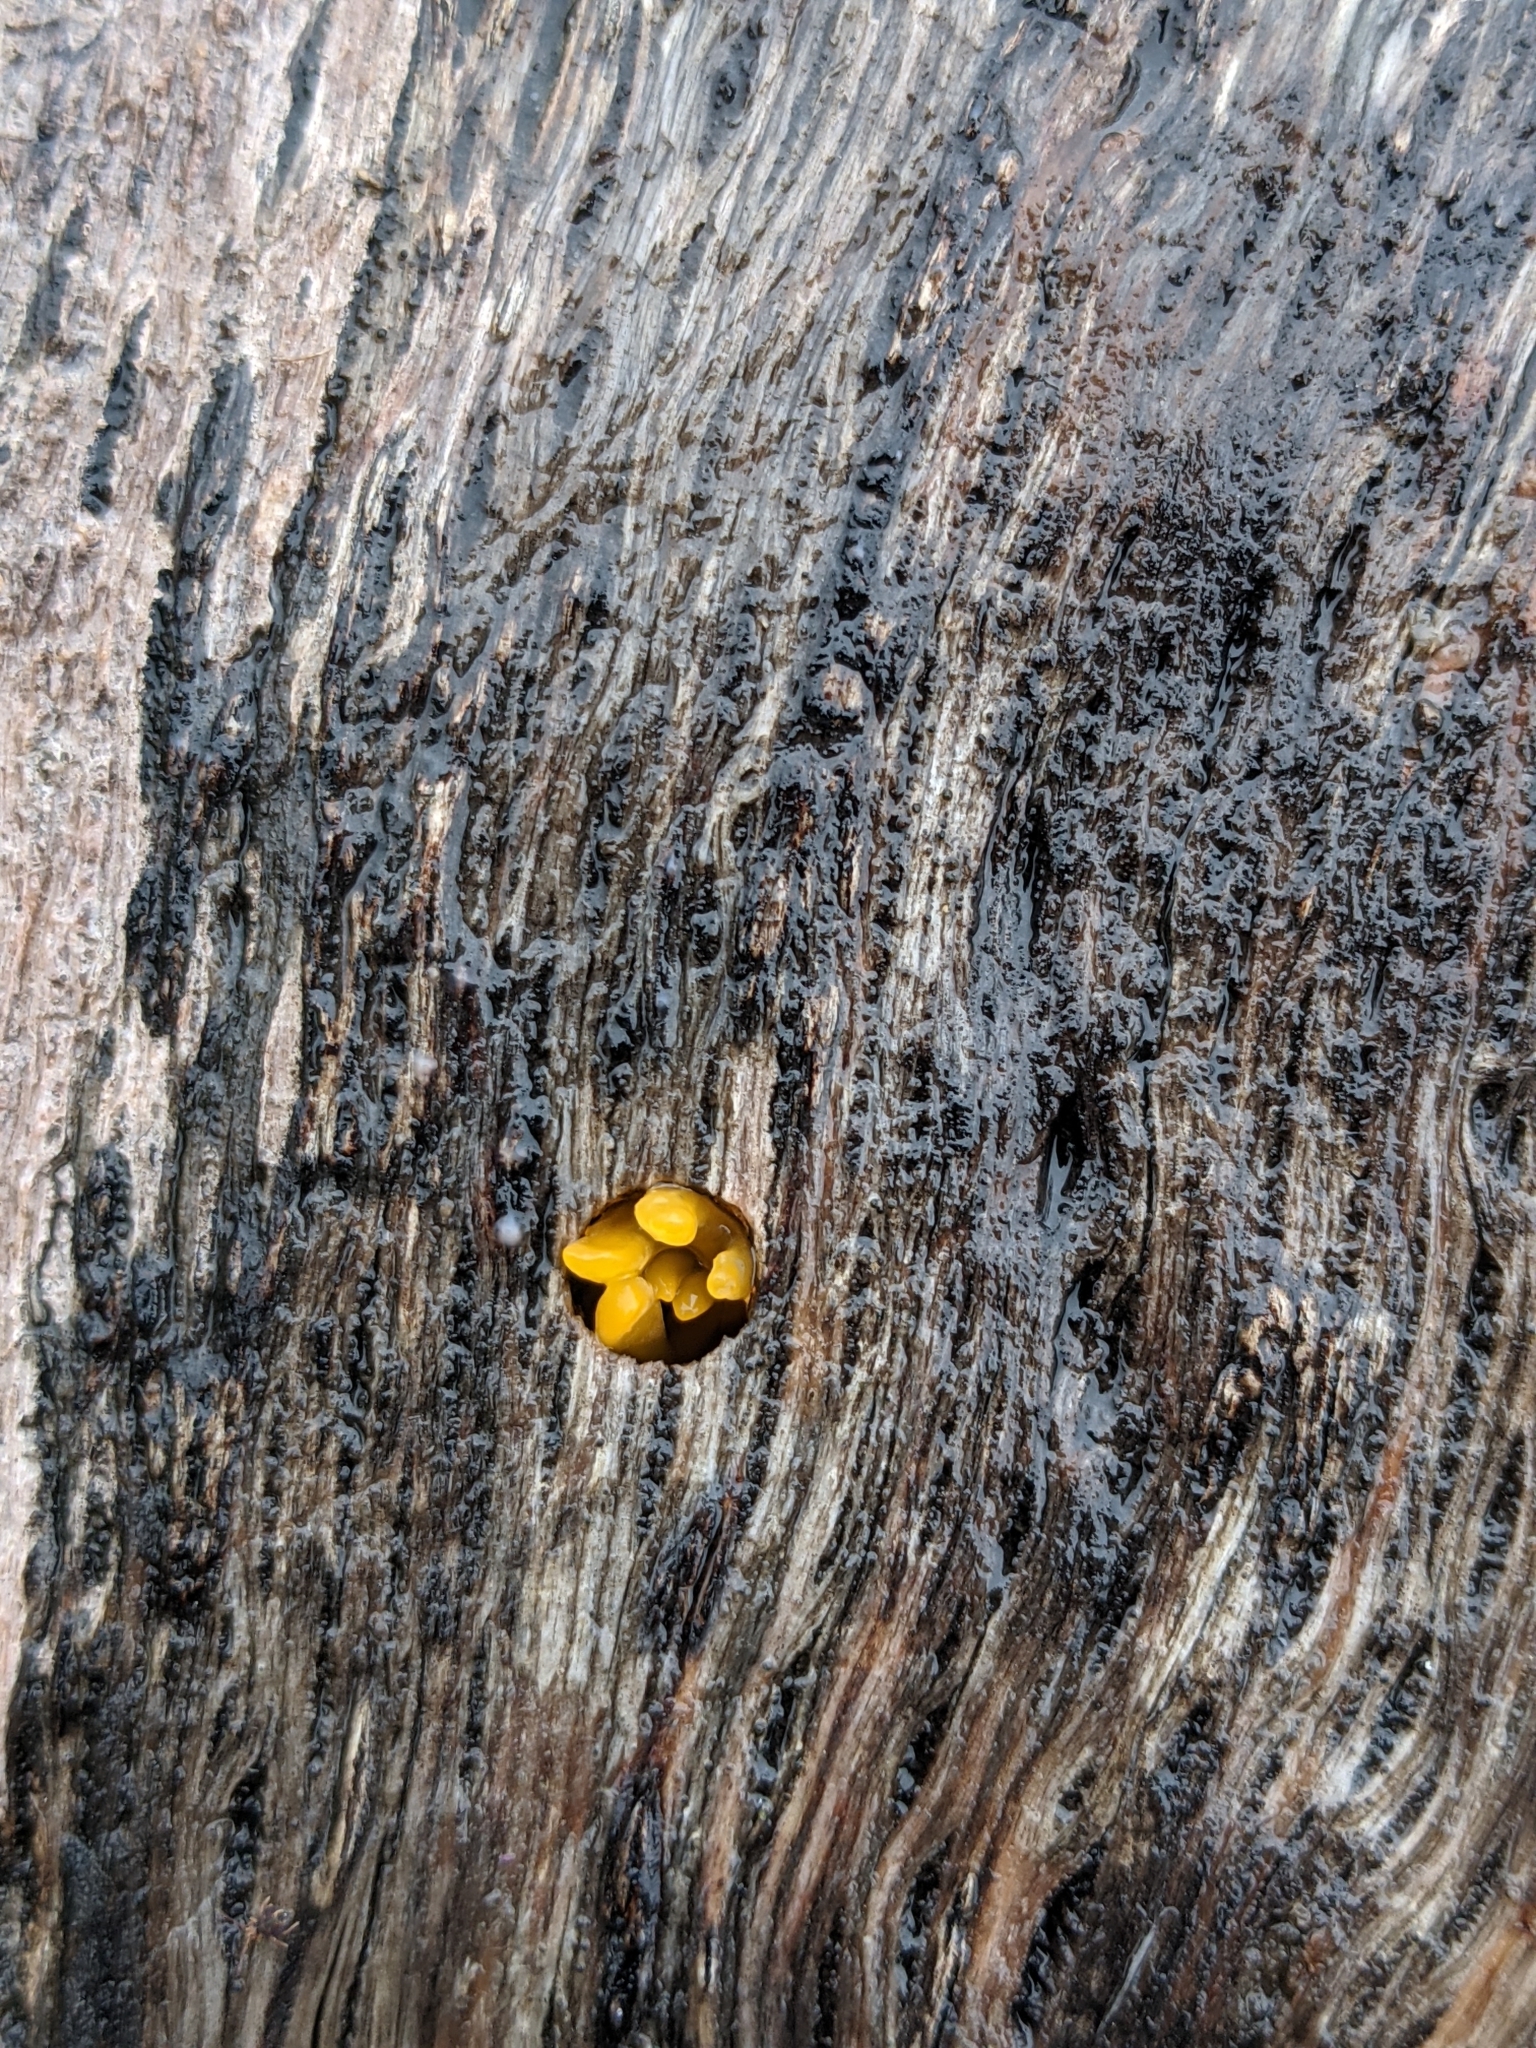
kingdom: Fungi
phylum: Basidiomycota
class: Dacrymycetes
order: Dacrymycetales
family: Dacrymycetaceae
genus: Calocera
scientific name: Calocera cornea
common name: Small stagshorn
